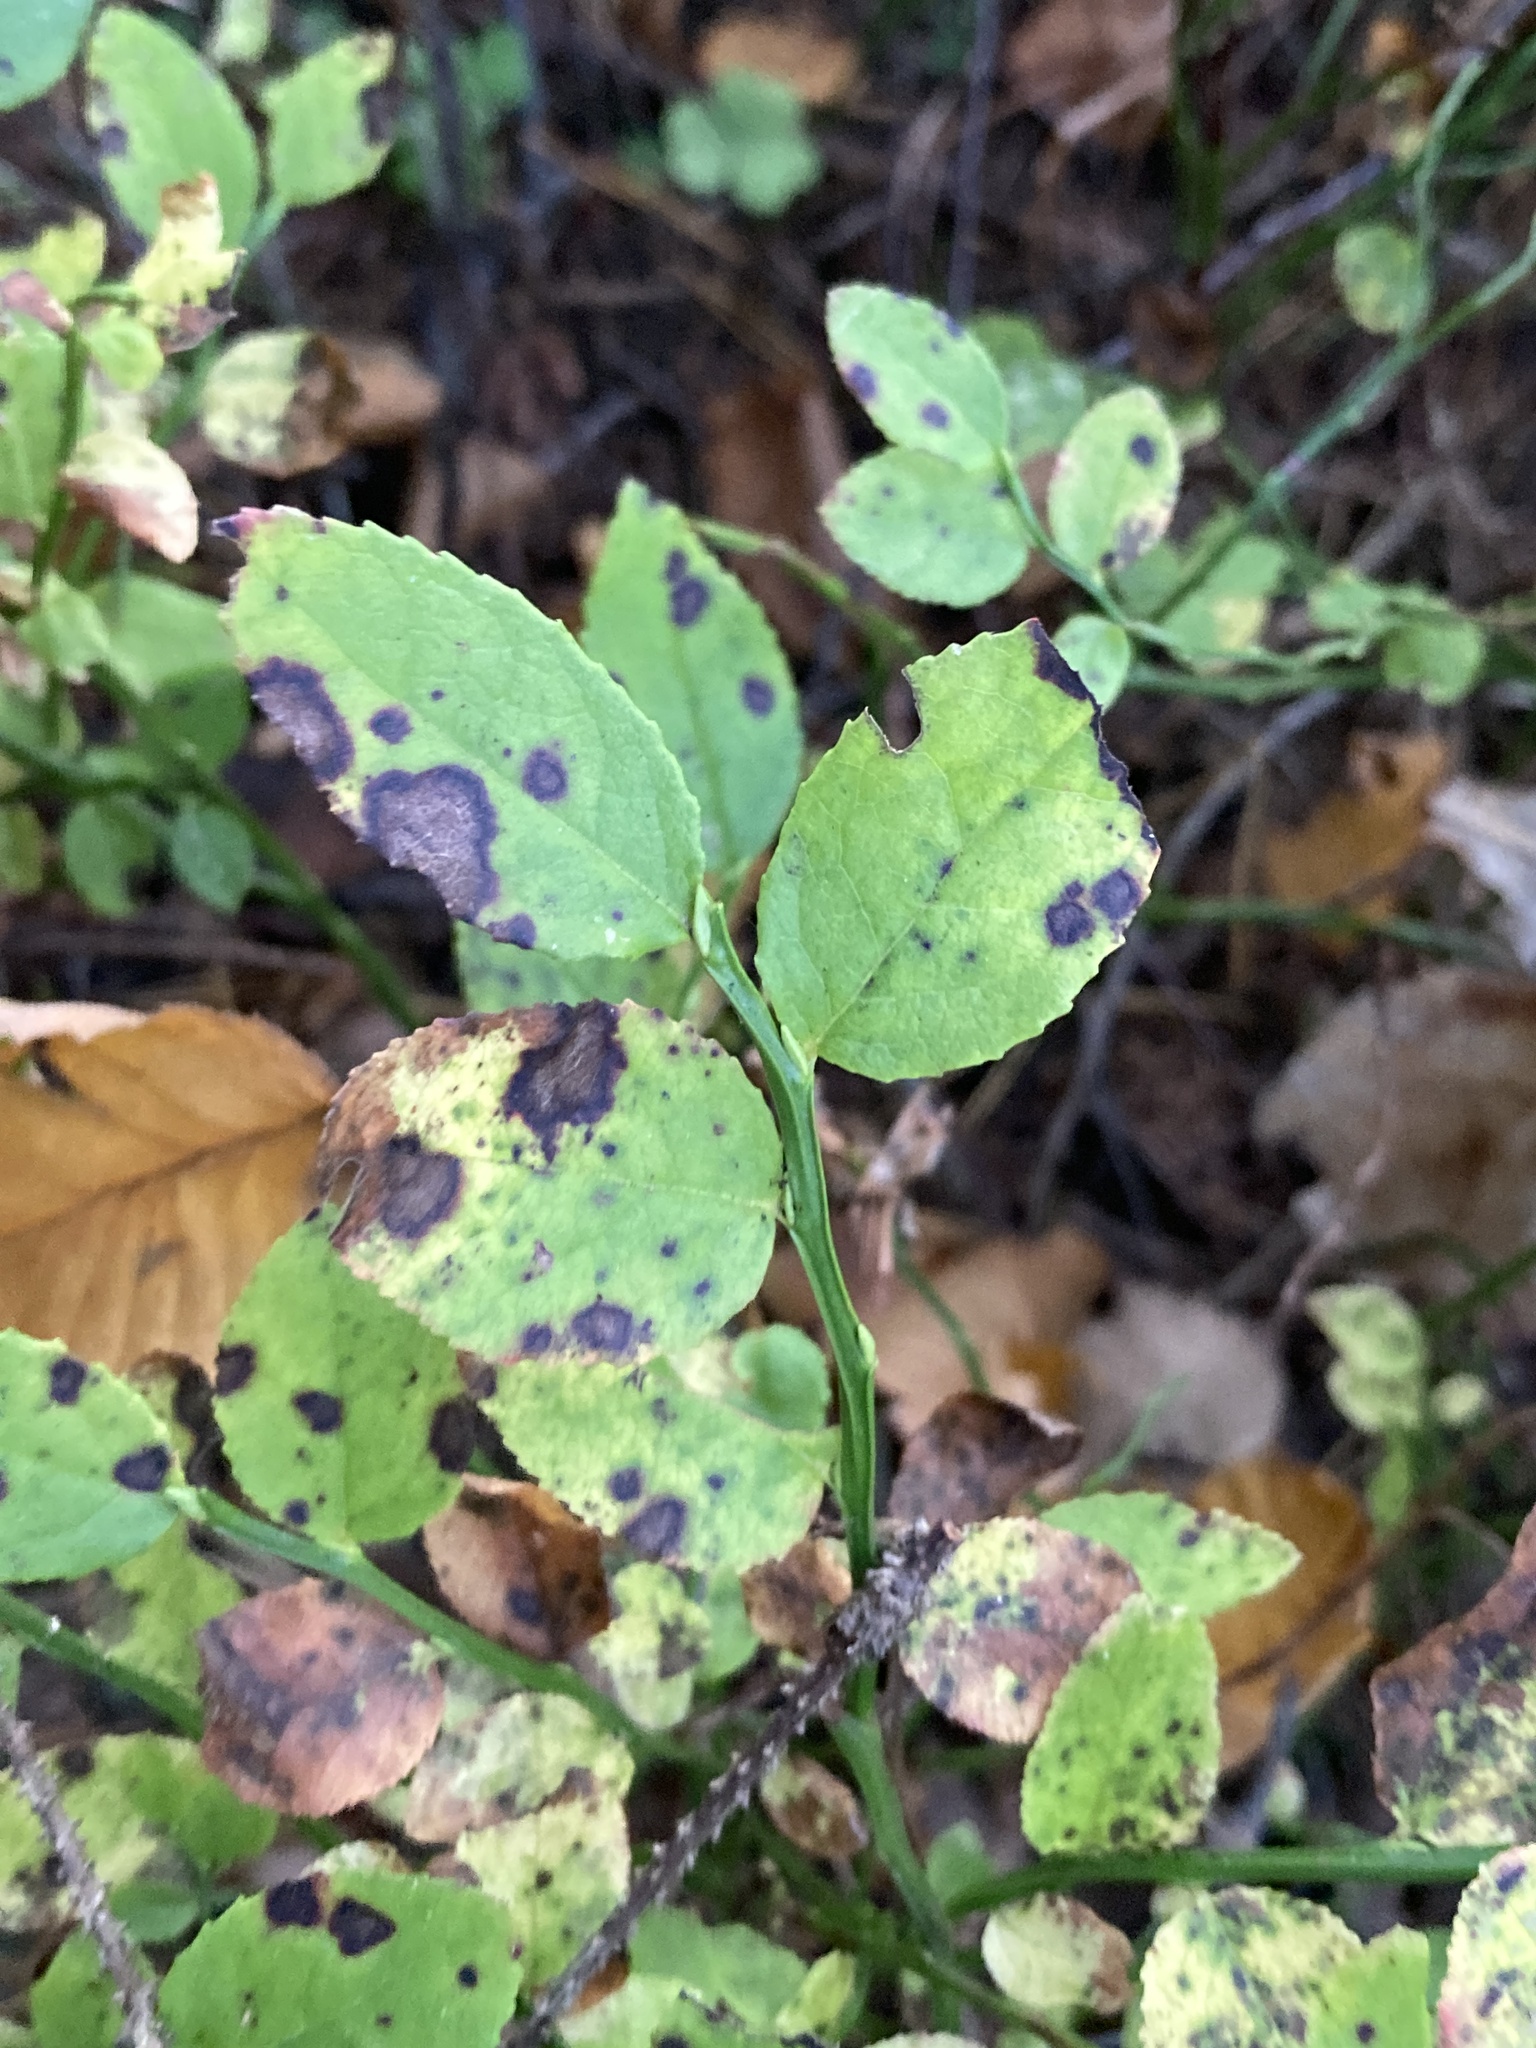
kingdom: Plantae
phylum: Tracheophyta
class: Magnoliopsida
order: Ericales
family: Ericaceae
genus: Vaccinium
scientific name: Vaccinium myrtillus
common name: Bilberry
